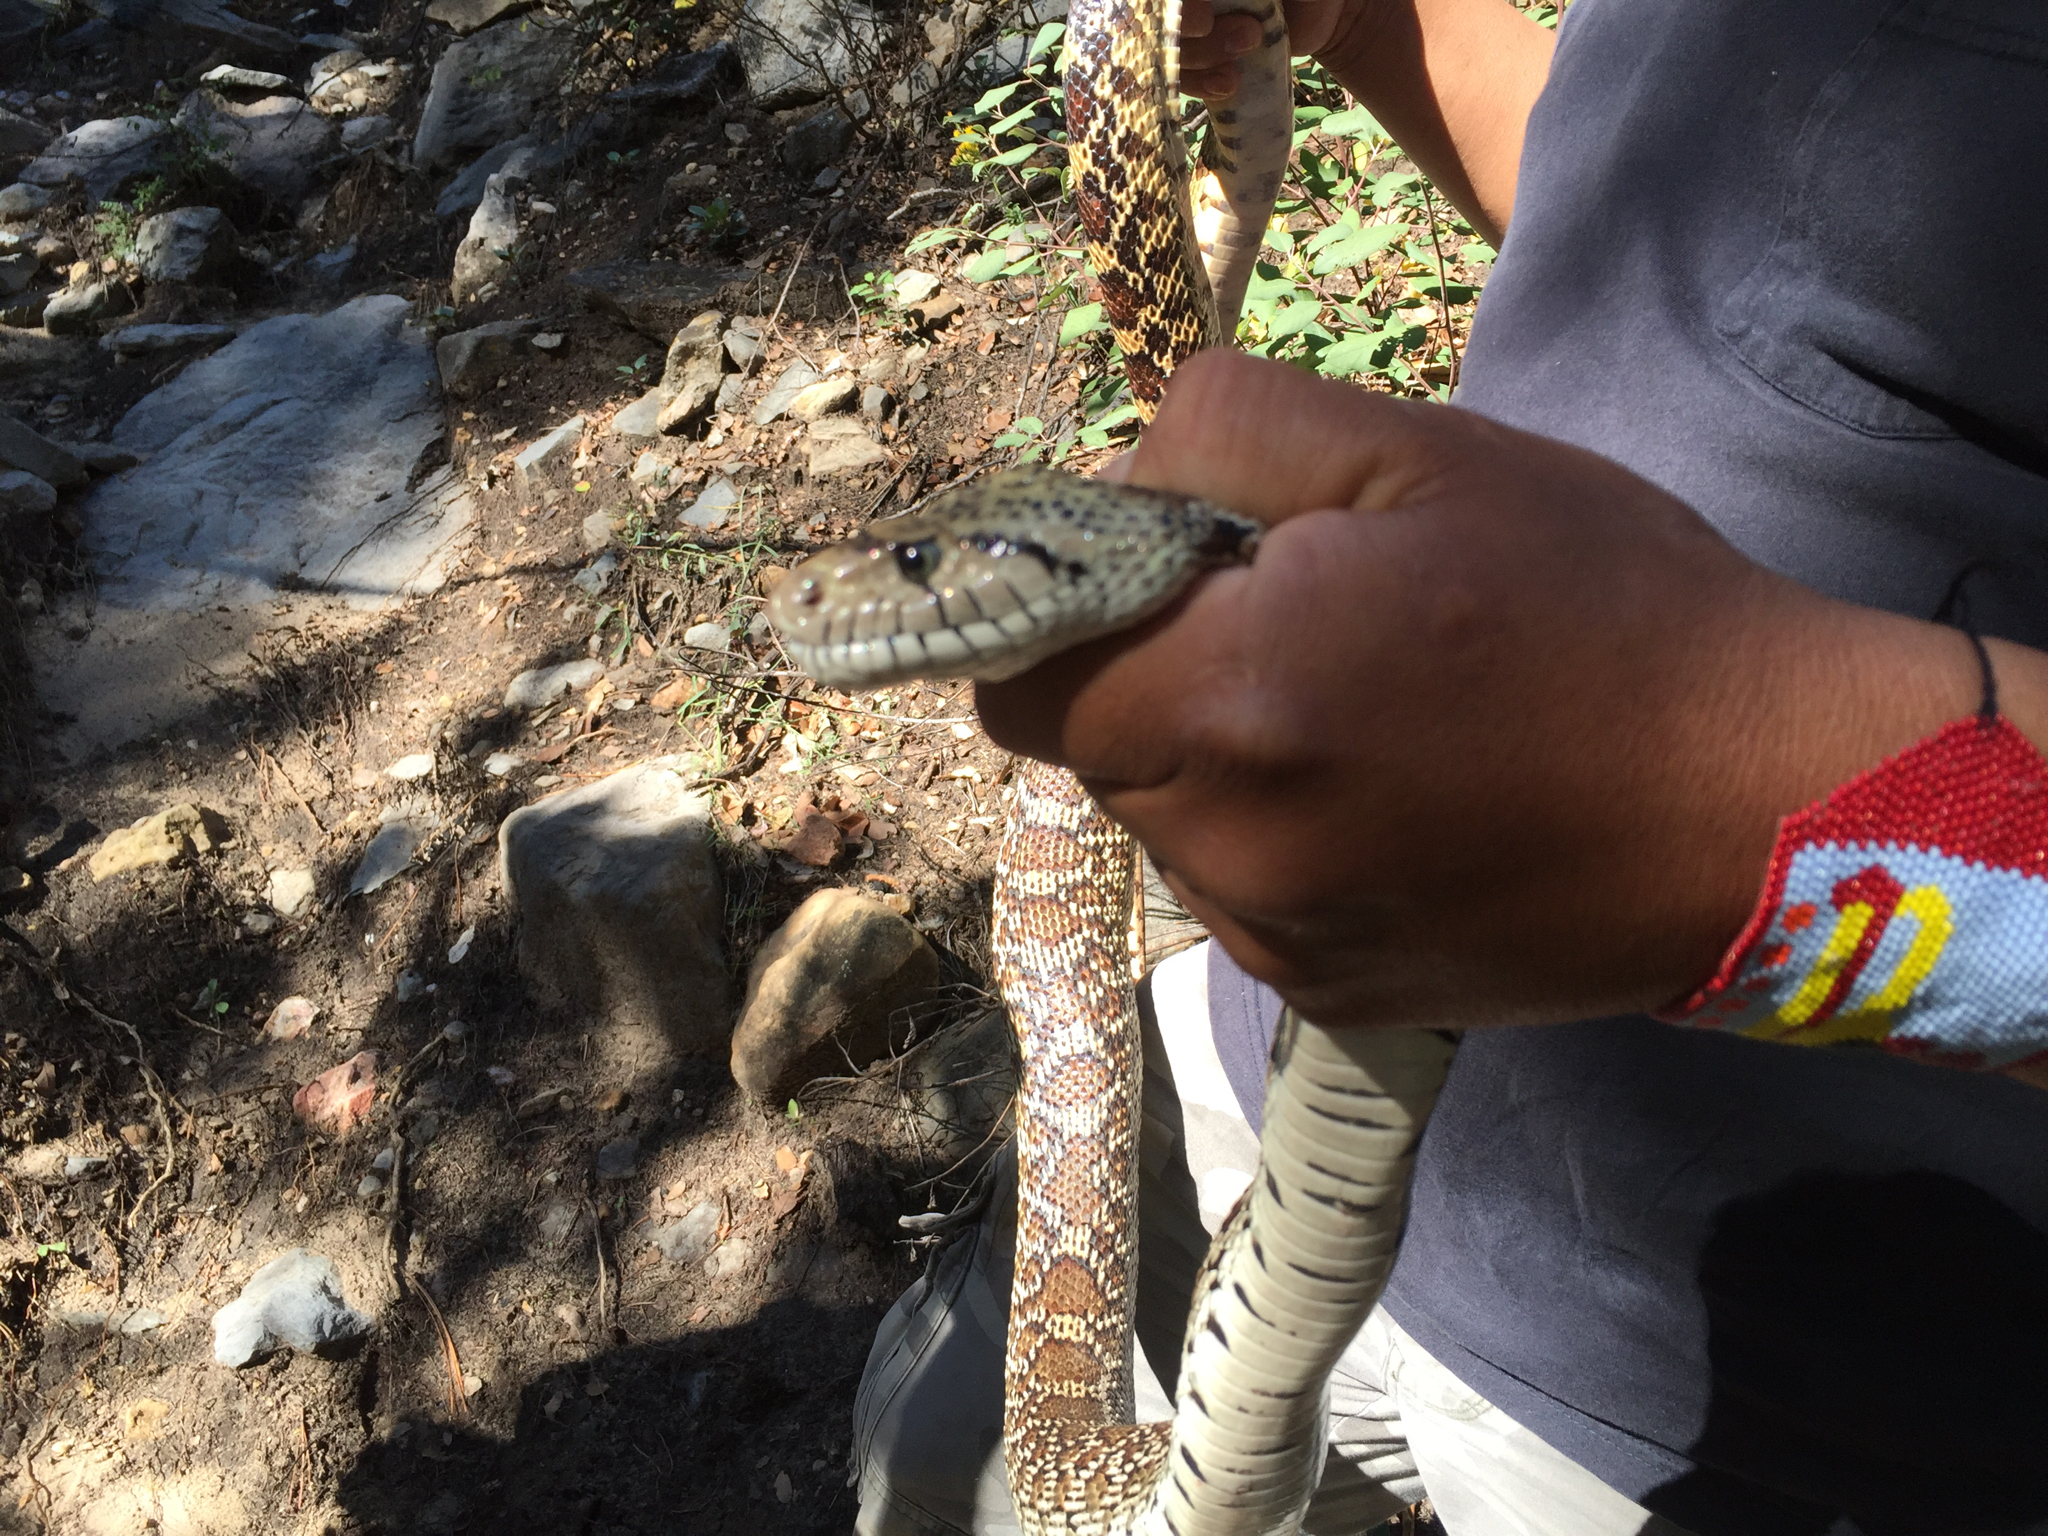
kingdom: Animalia
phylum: Chordata
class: Squamata
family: Colubridae
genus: Pituophis
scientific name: Pituophis catenifer
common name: Gopher snake
